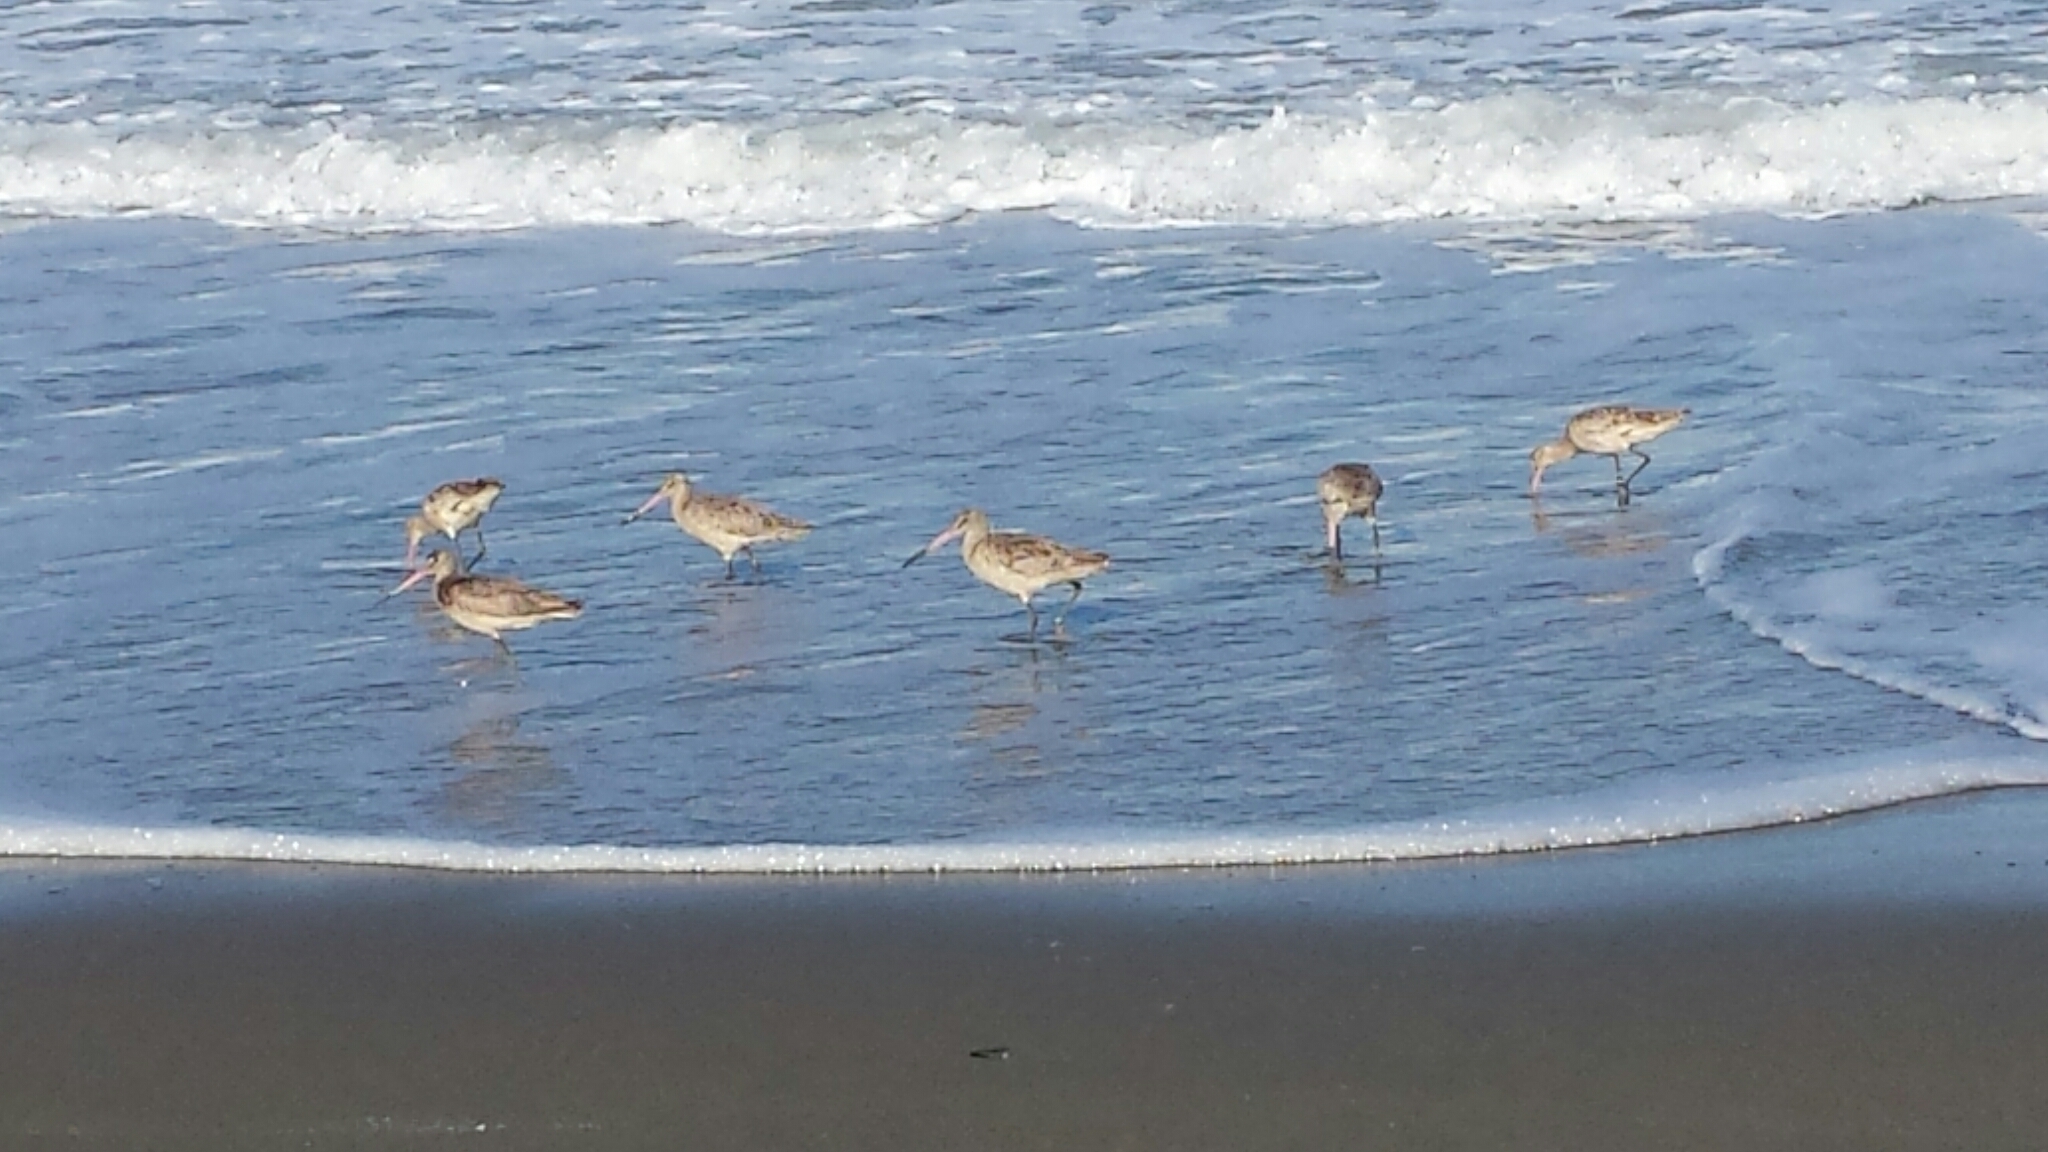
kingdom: Animalia
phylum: Chordata
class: Aves
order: Charadriiformes
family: Scolopacidae
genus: Limosa
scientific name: Limosa fedoa
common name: Marbled godwit
